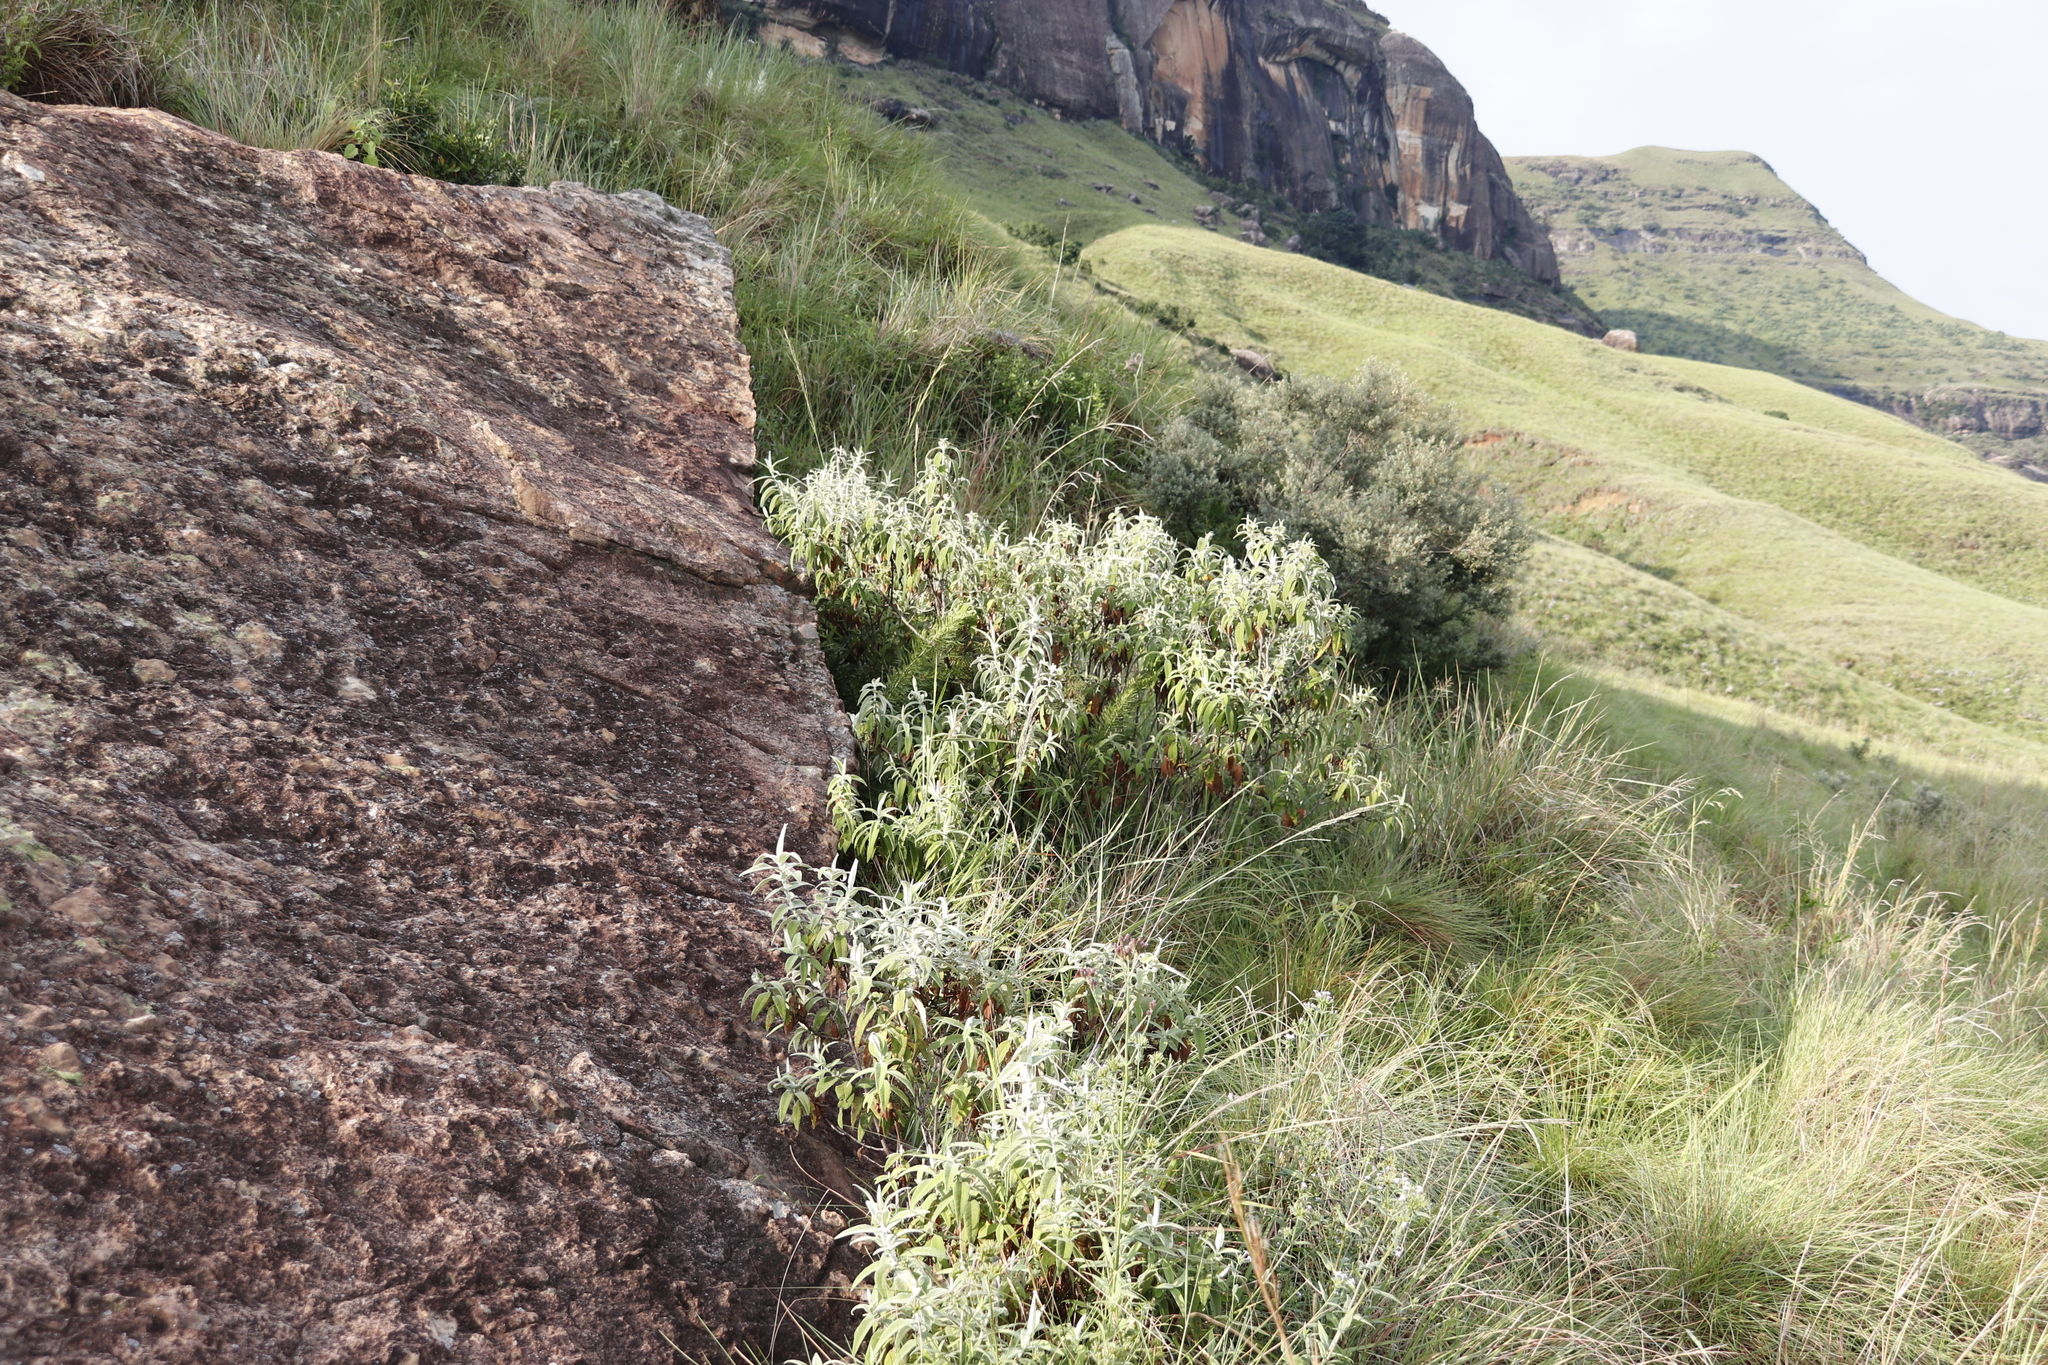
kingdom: Plantae
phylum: Tracheophyta
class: Magnoliopsida
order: Lamiales
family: Scrophulariaceae
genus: Buddleja
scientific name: Buddleja salviifolia
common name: Sagewood
